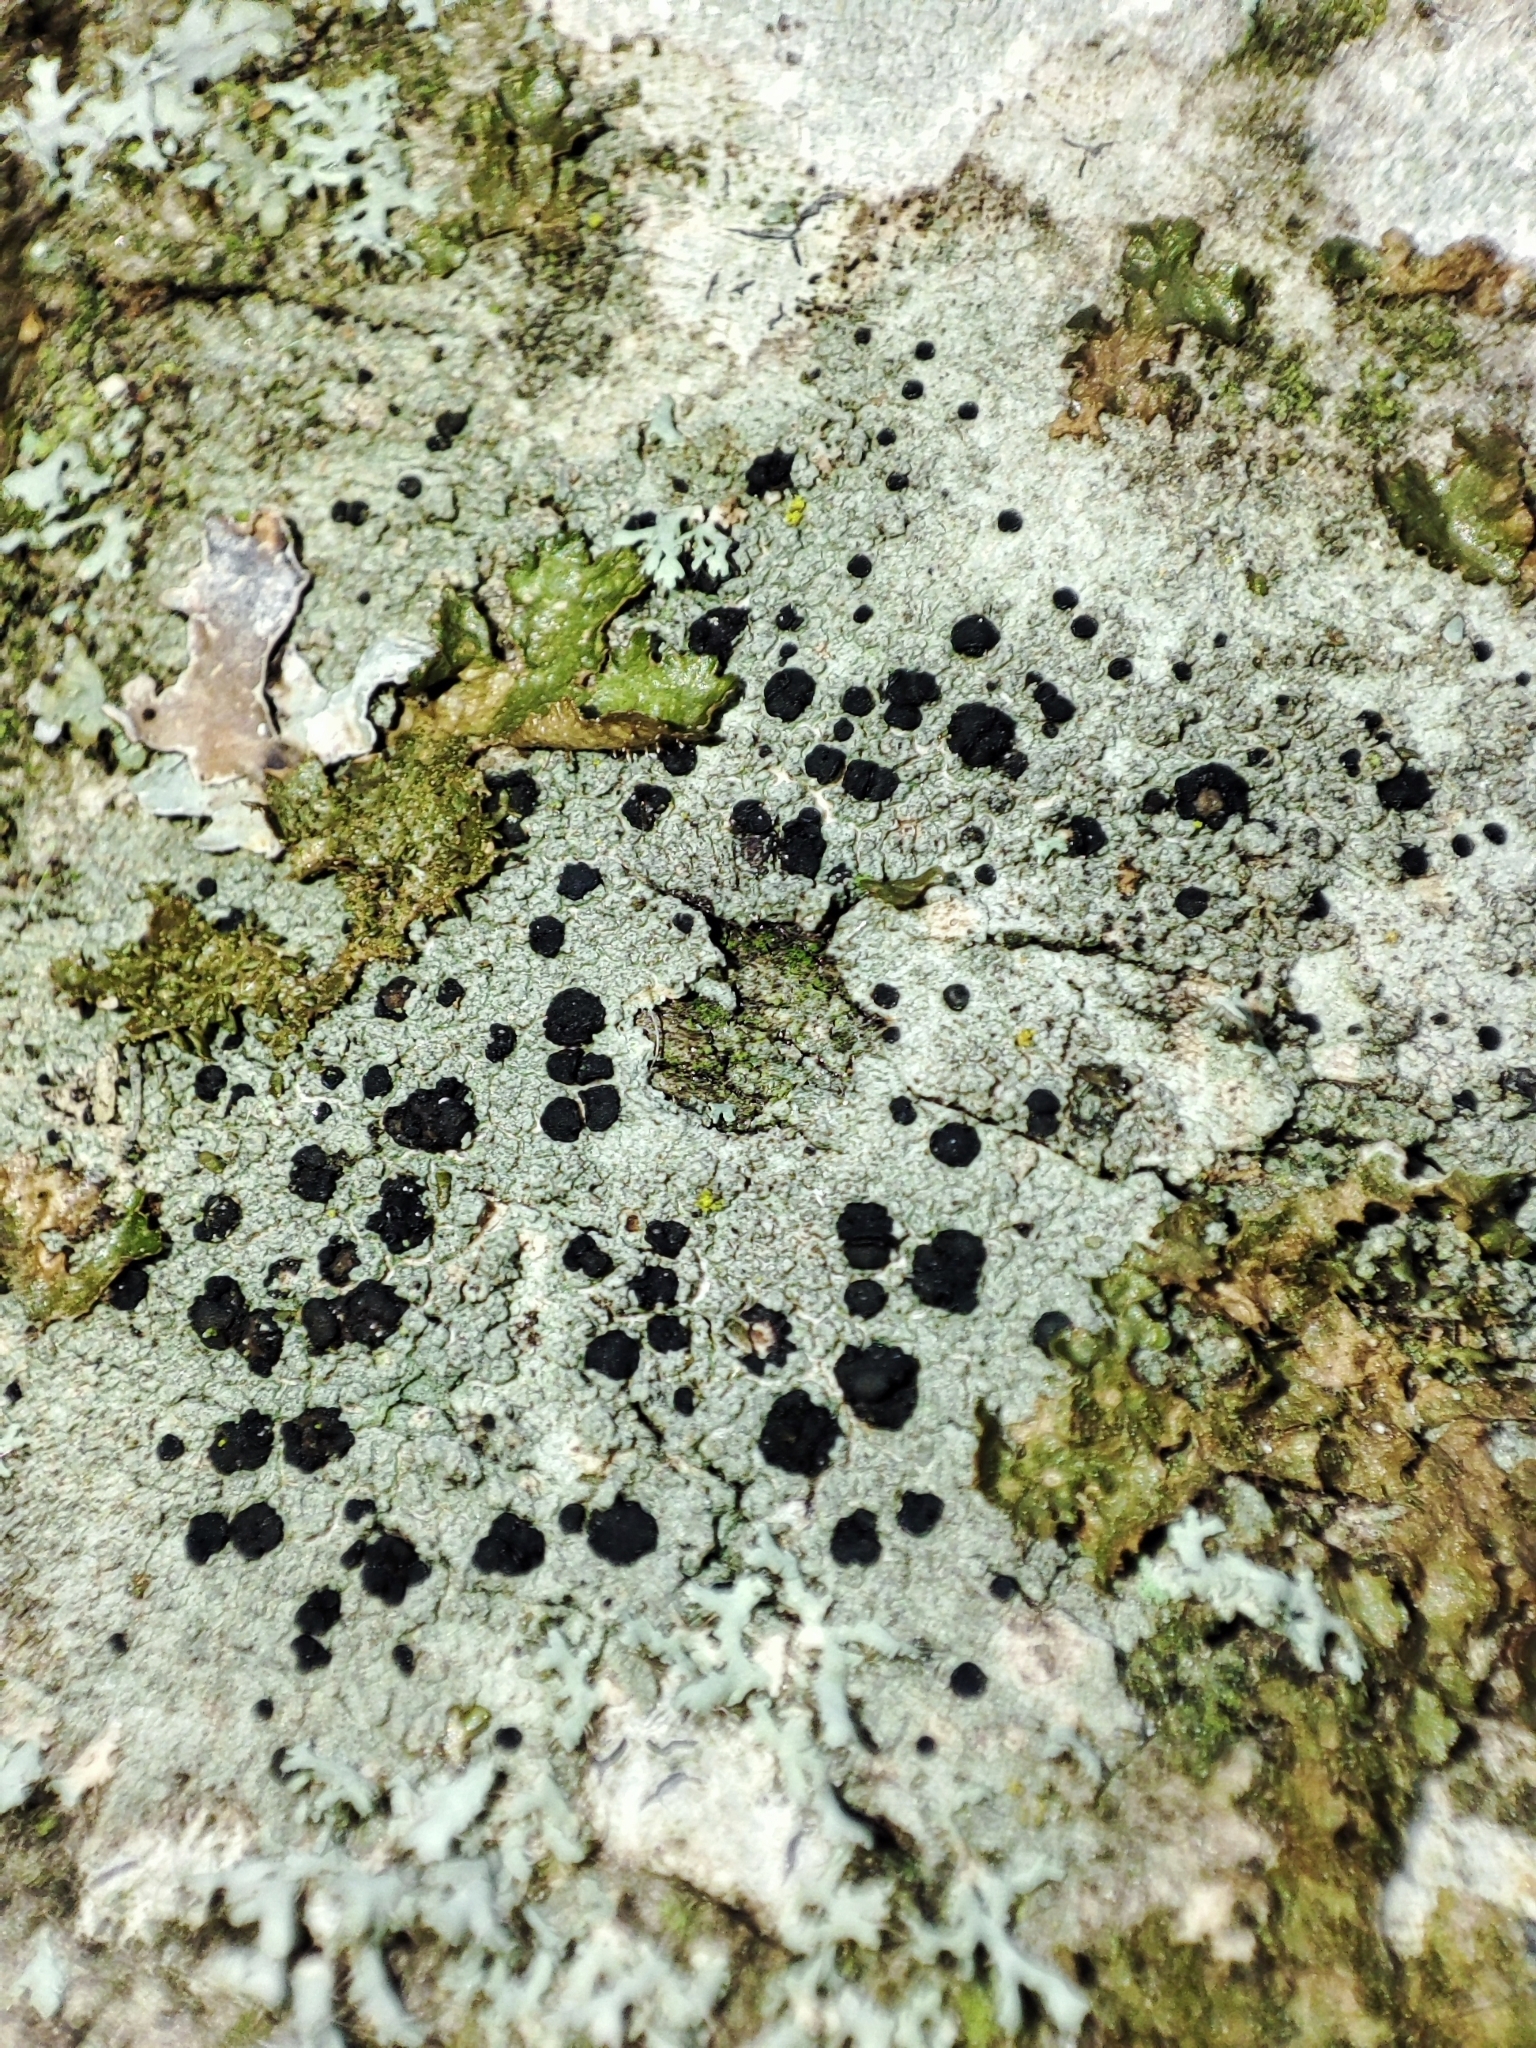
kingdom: Fungi
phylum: Ascomycota
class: Lecanoromycetes
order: Lecanorales
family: Lecanoraceae
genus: Lecidella
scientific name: Lecidella elaeochroma
